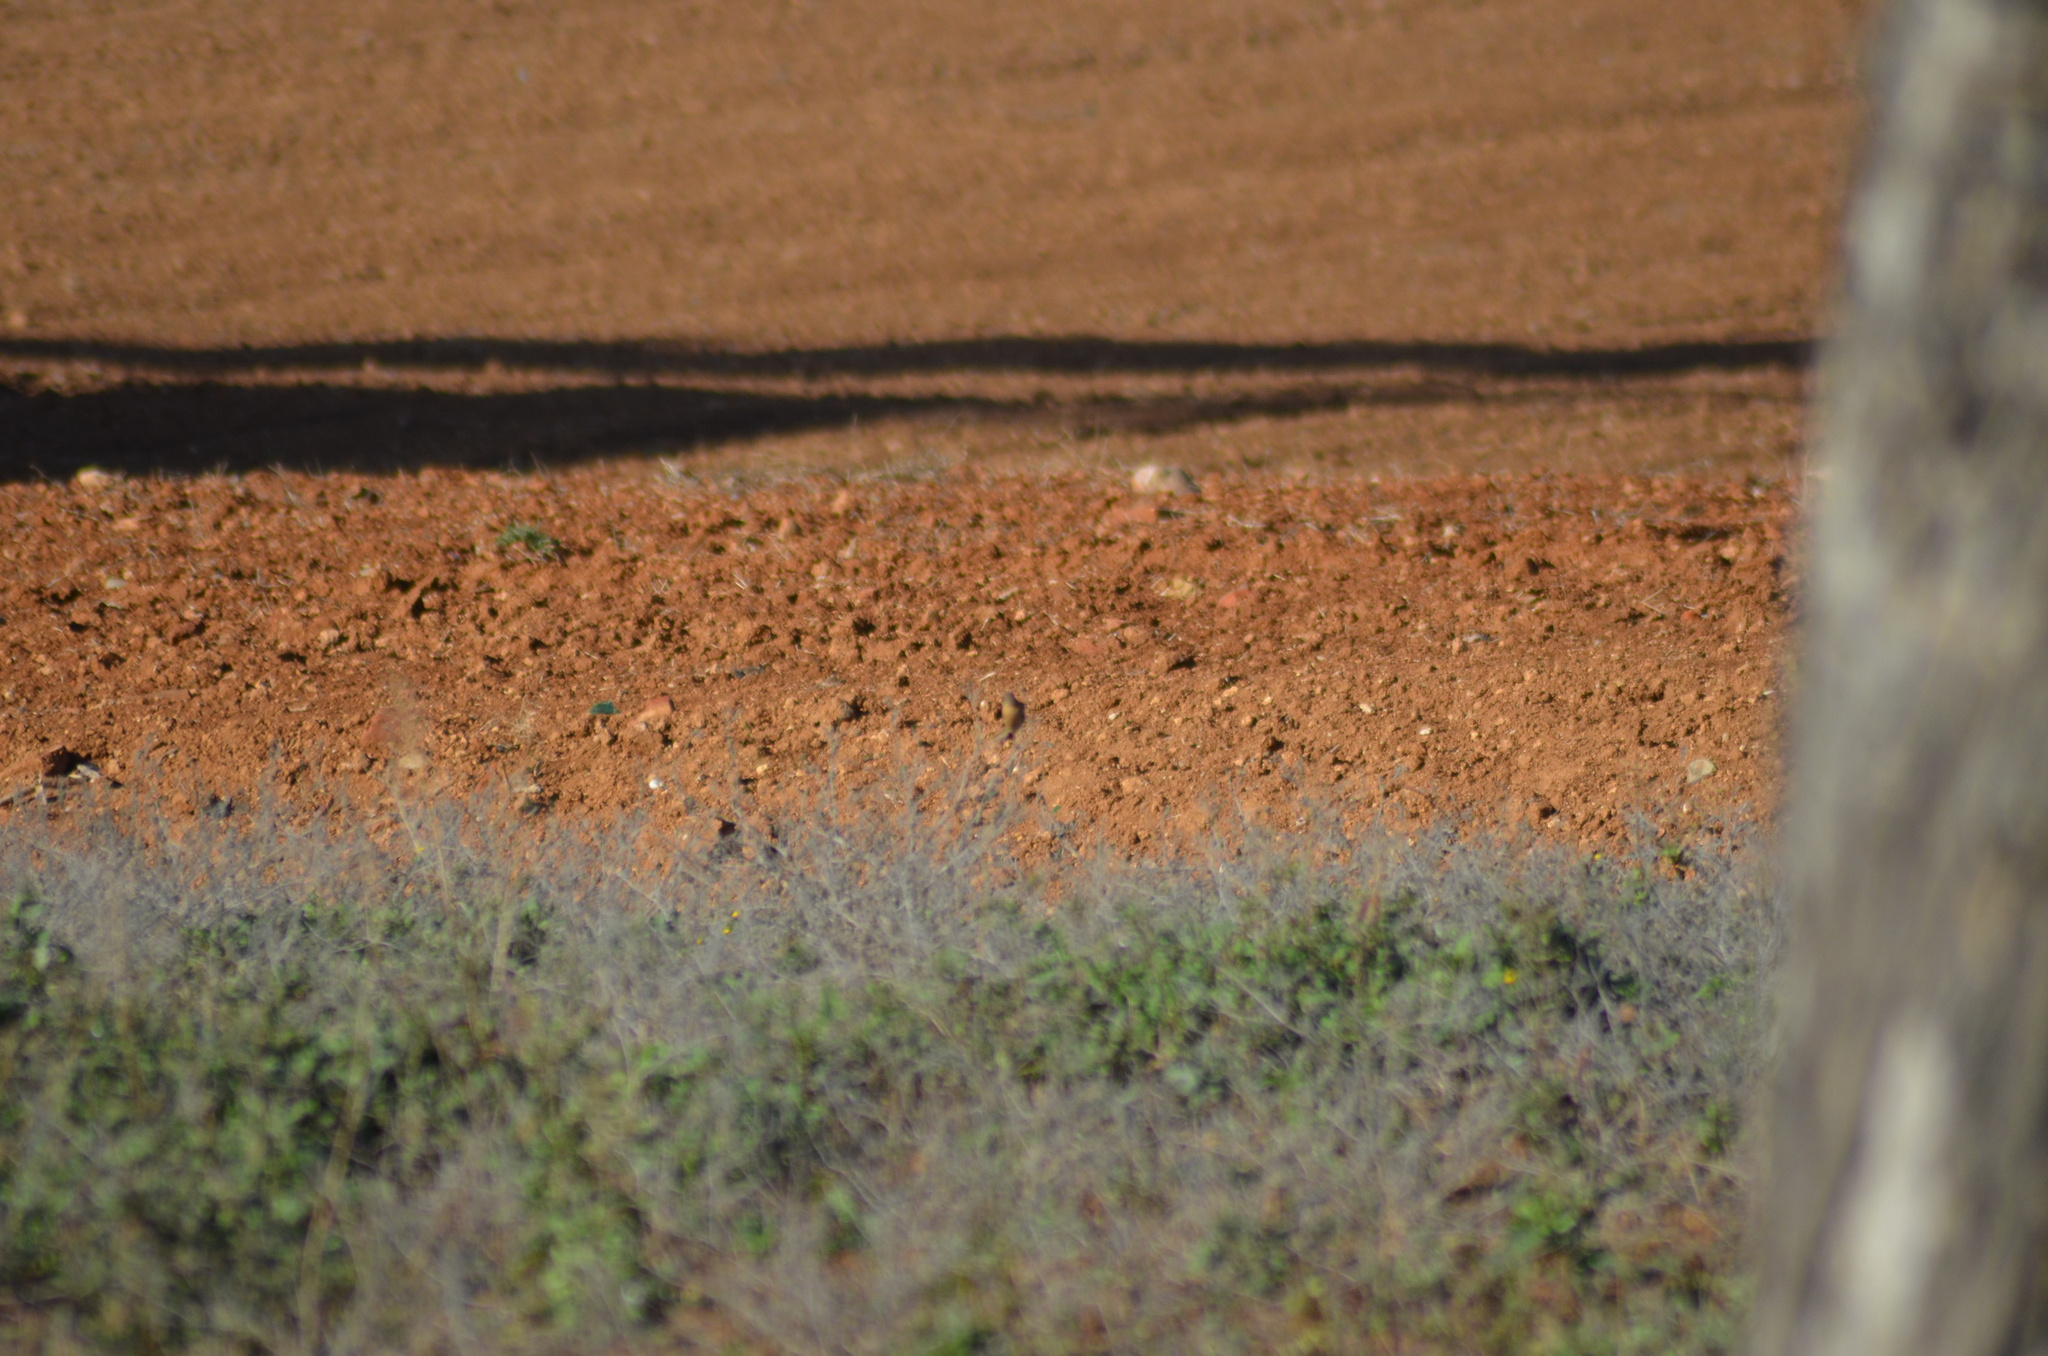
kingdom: Animalia
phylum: Chordata
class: Aves
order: Passeriformes
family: Muscicapidae
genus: Saxicola
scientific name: Saxicola rubicola
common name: European stonechat
